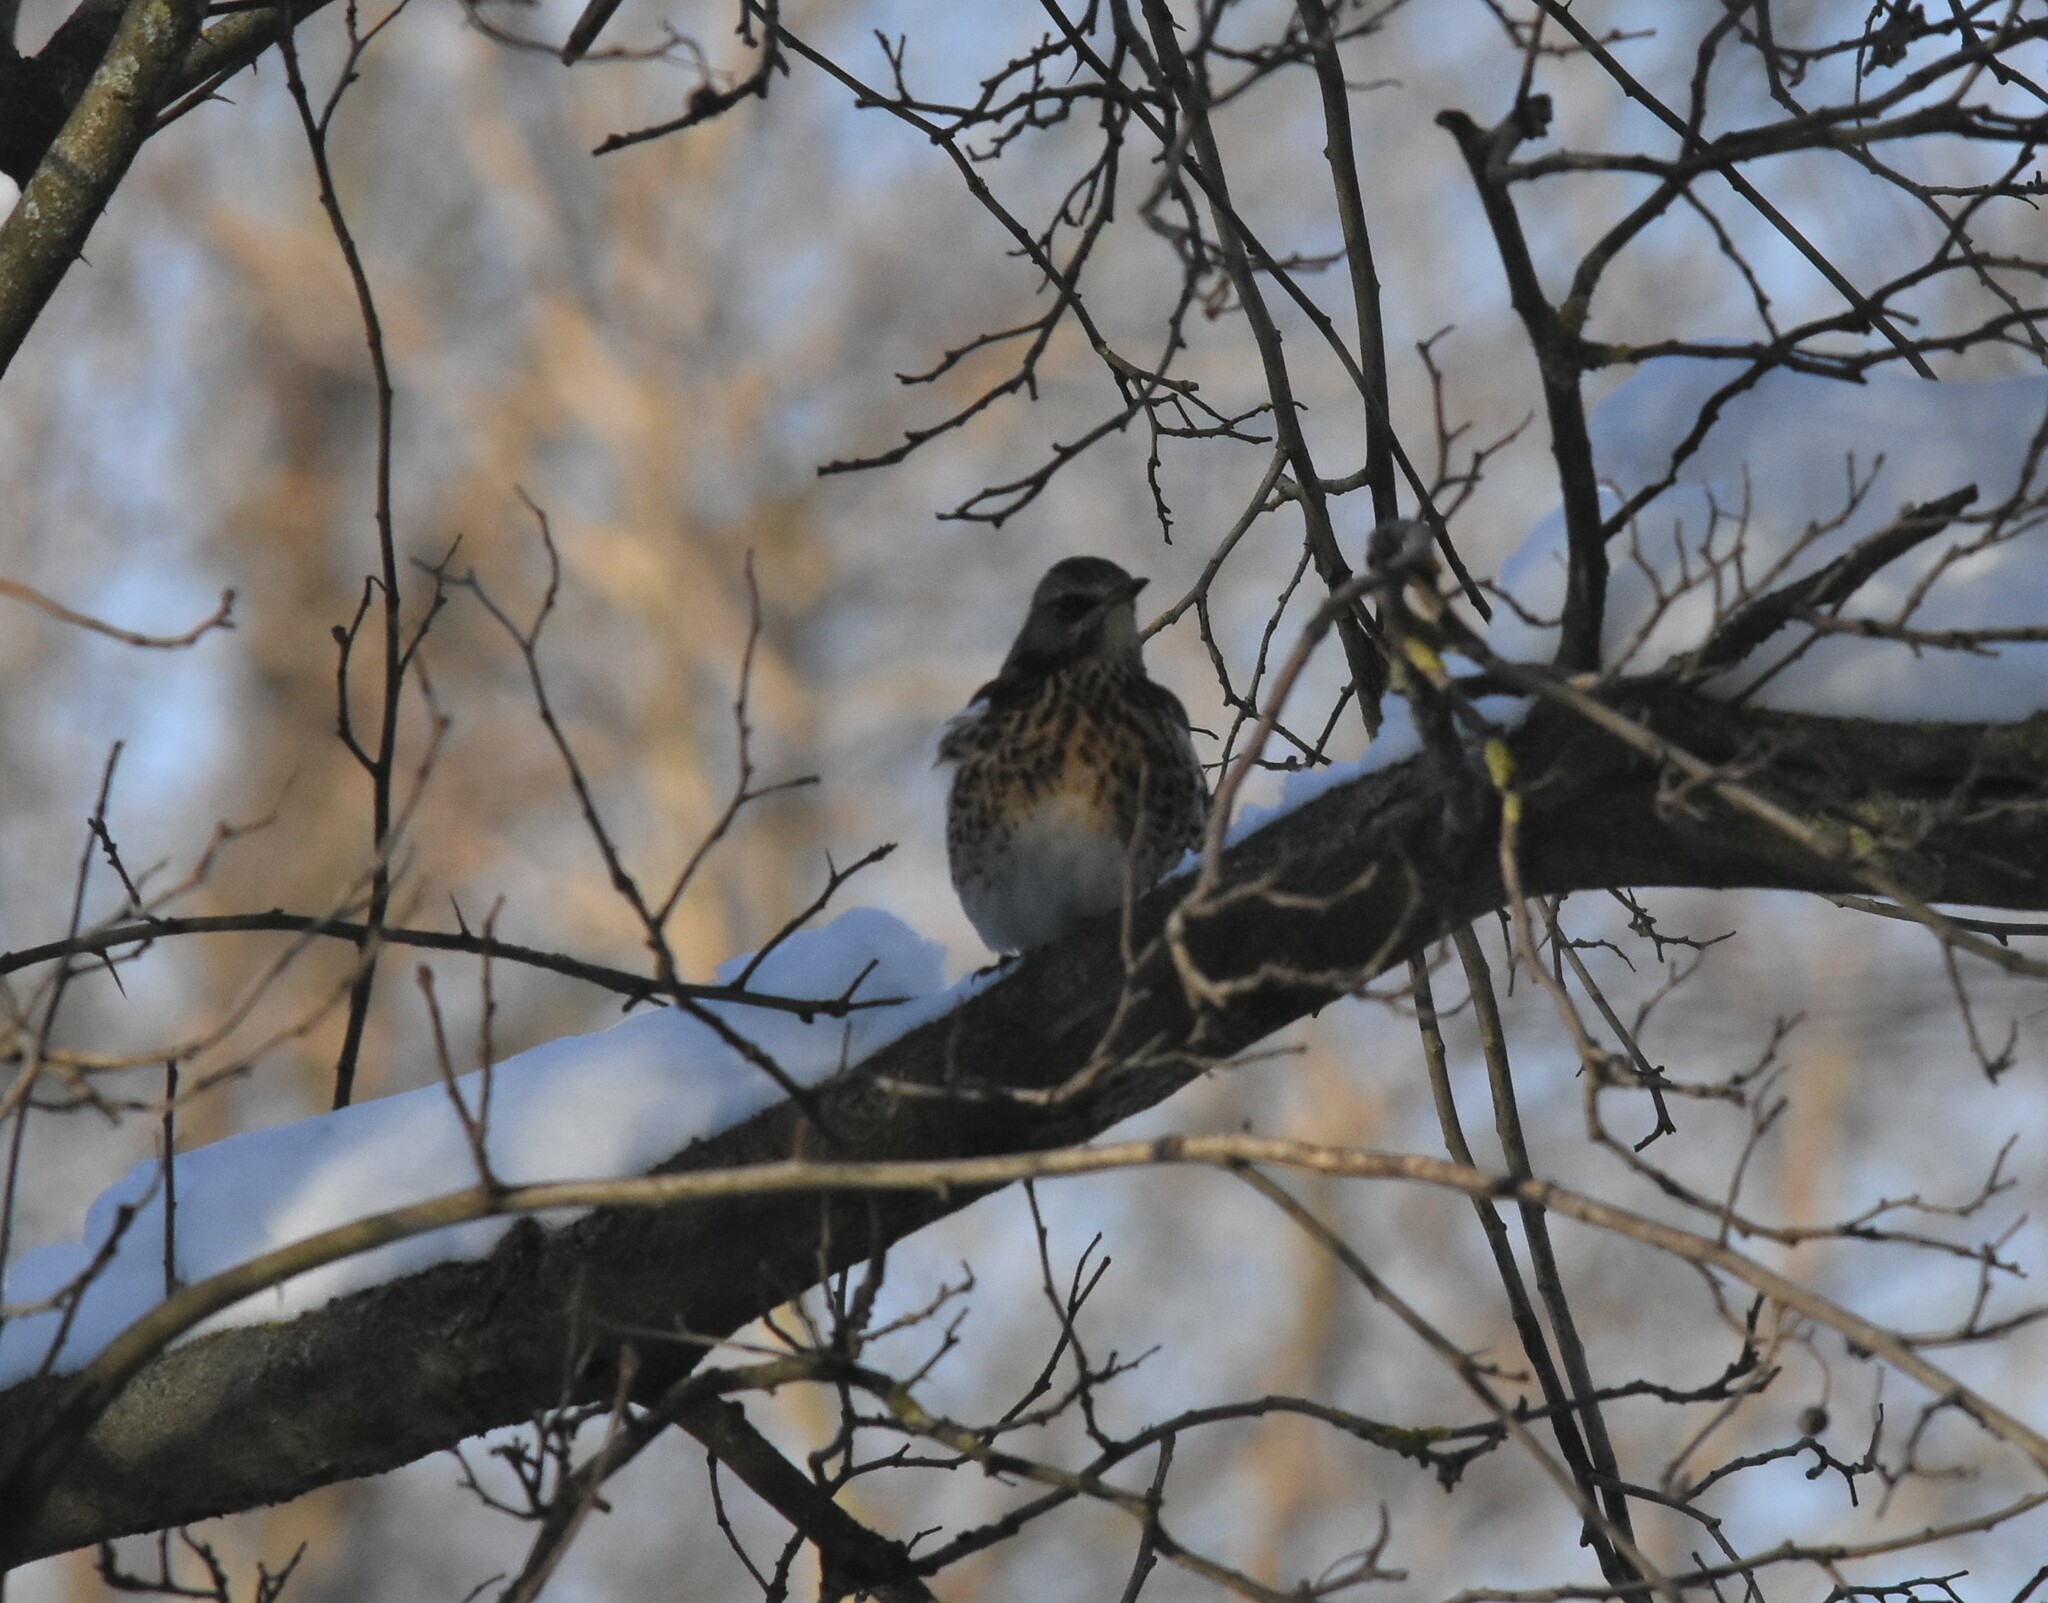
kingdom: Animalia
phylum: Chordata
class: Aves
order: Passeriformes
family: Turdidae
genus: Turdus
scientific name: Turdus pilaris
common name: Fieldfare
